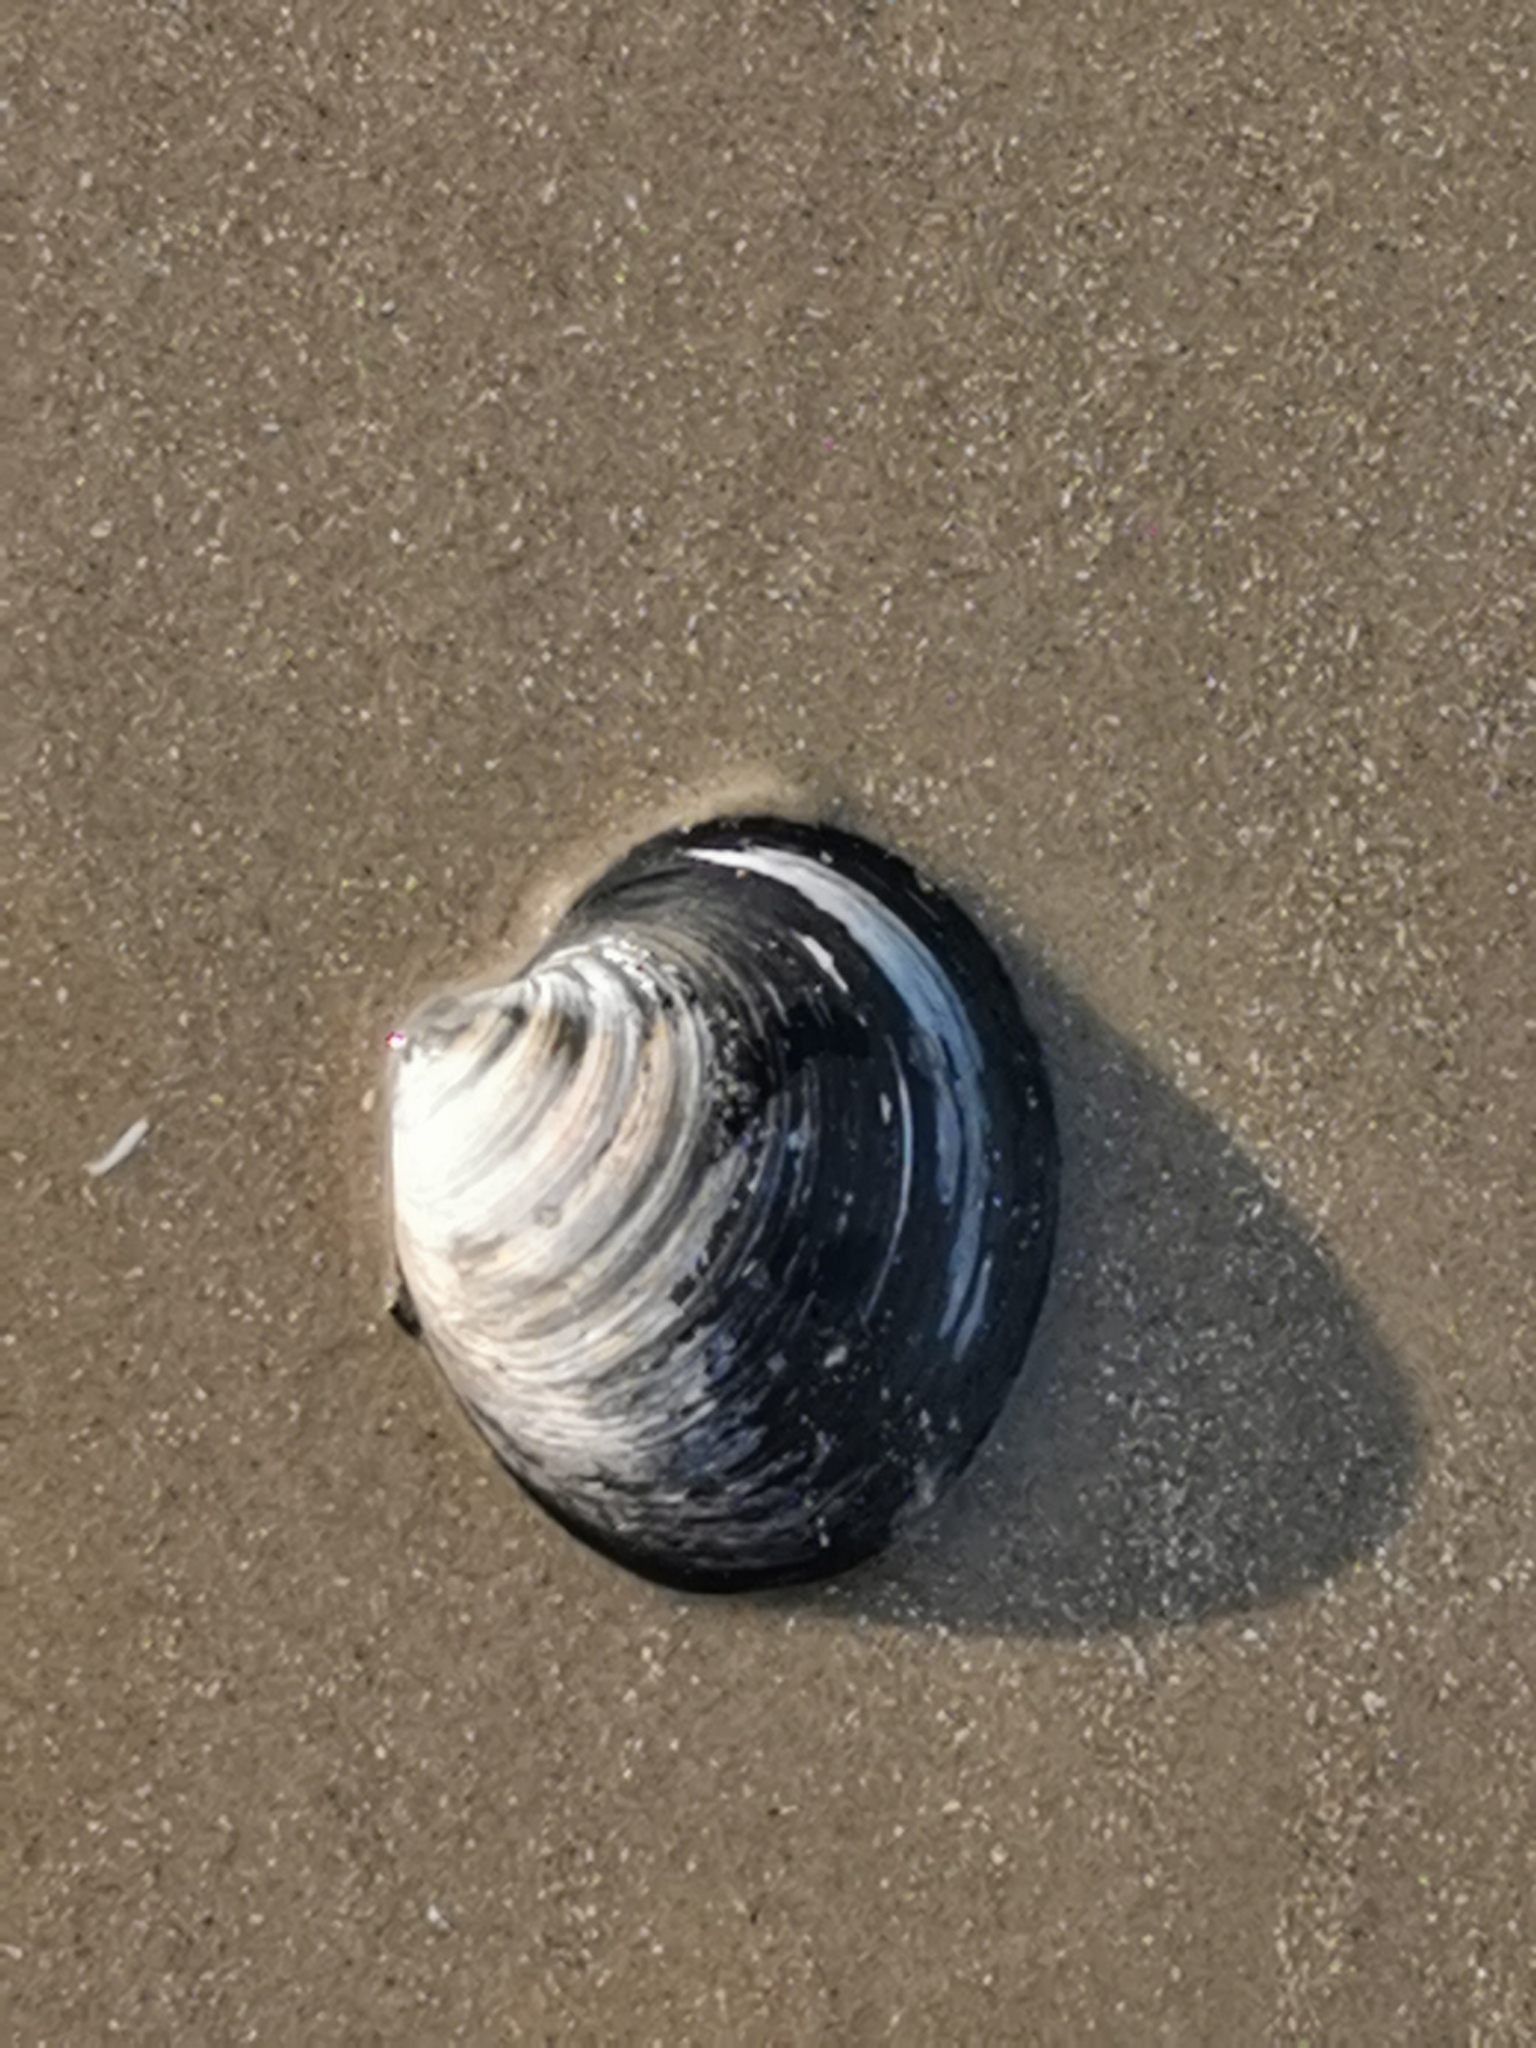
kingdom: Animalia
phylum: Mollusca
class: Bivalvia
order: Venerida
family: Arcticidae
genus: Arctica
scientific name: Arctica islandica
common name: Icelandic cyprine
